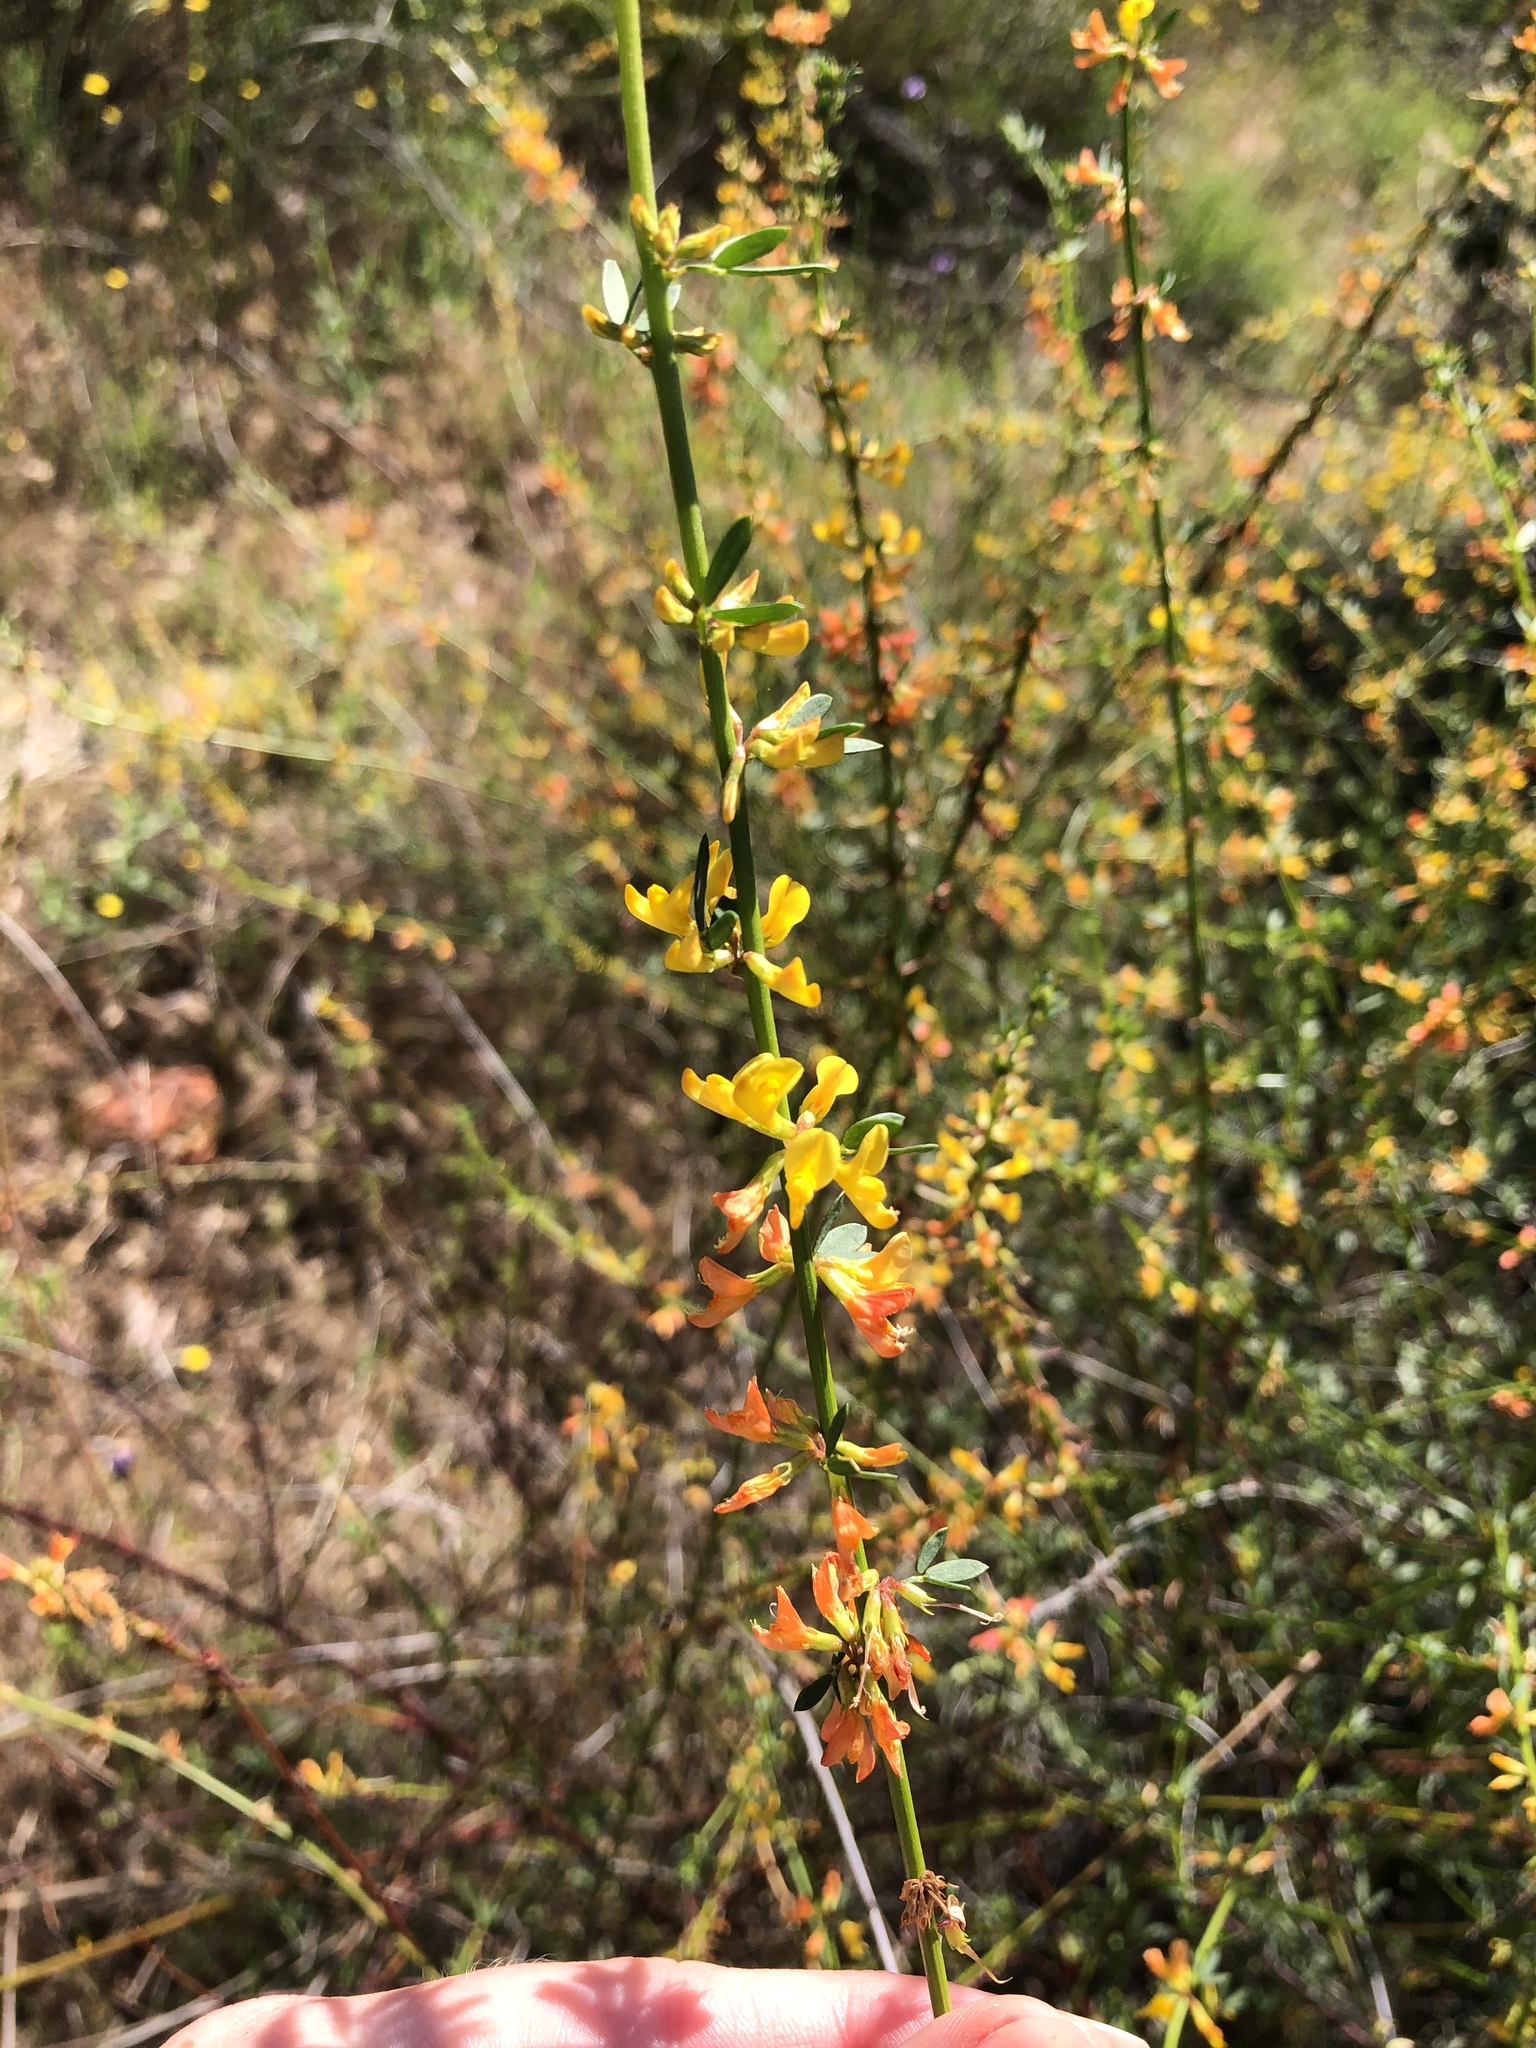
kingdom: Plantae
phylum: Tracheophyta
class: Magnoliopsida
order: Fabales
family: Fabaceae
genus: Acmispon
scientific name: Acmispon glaber
